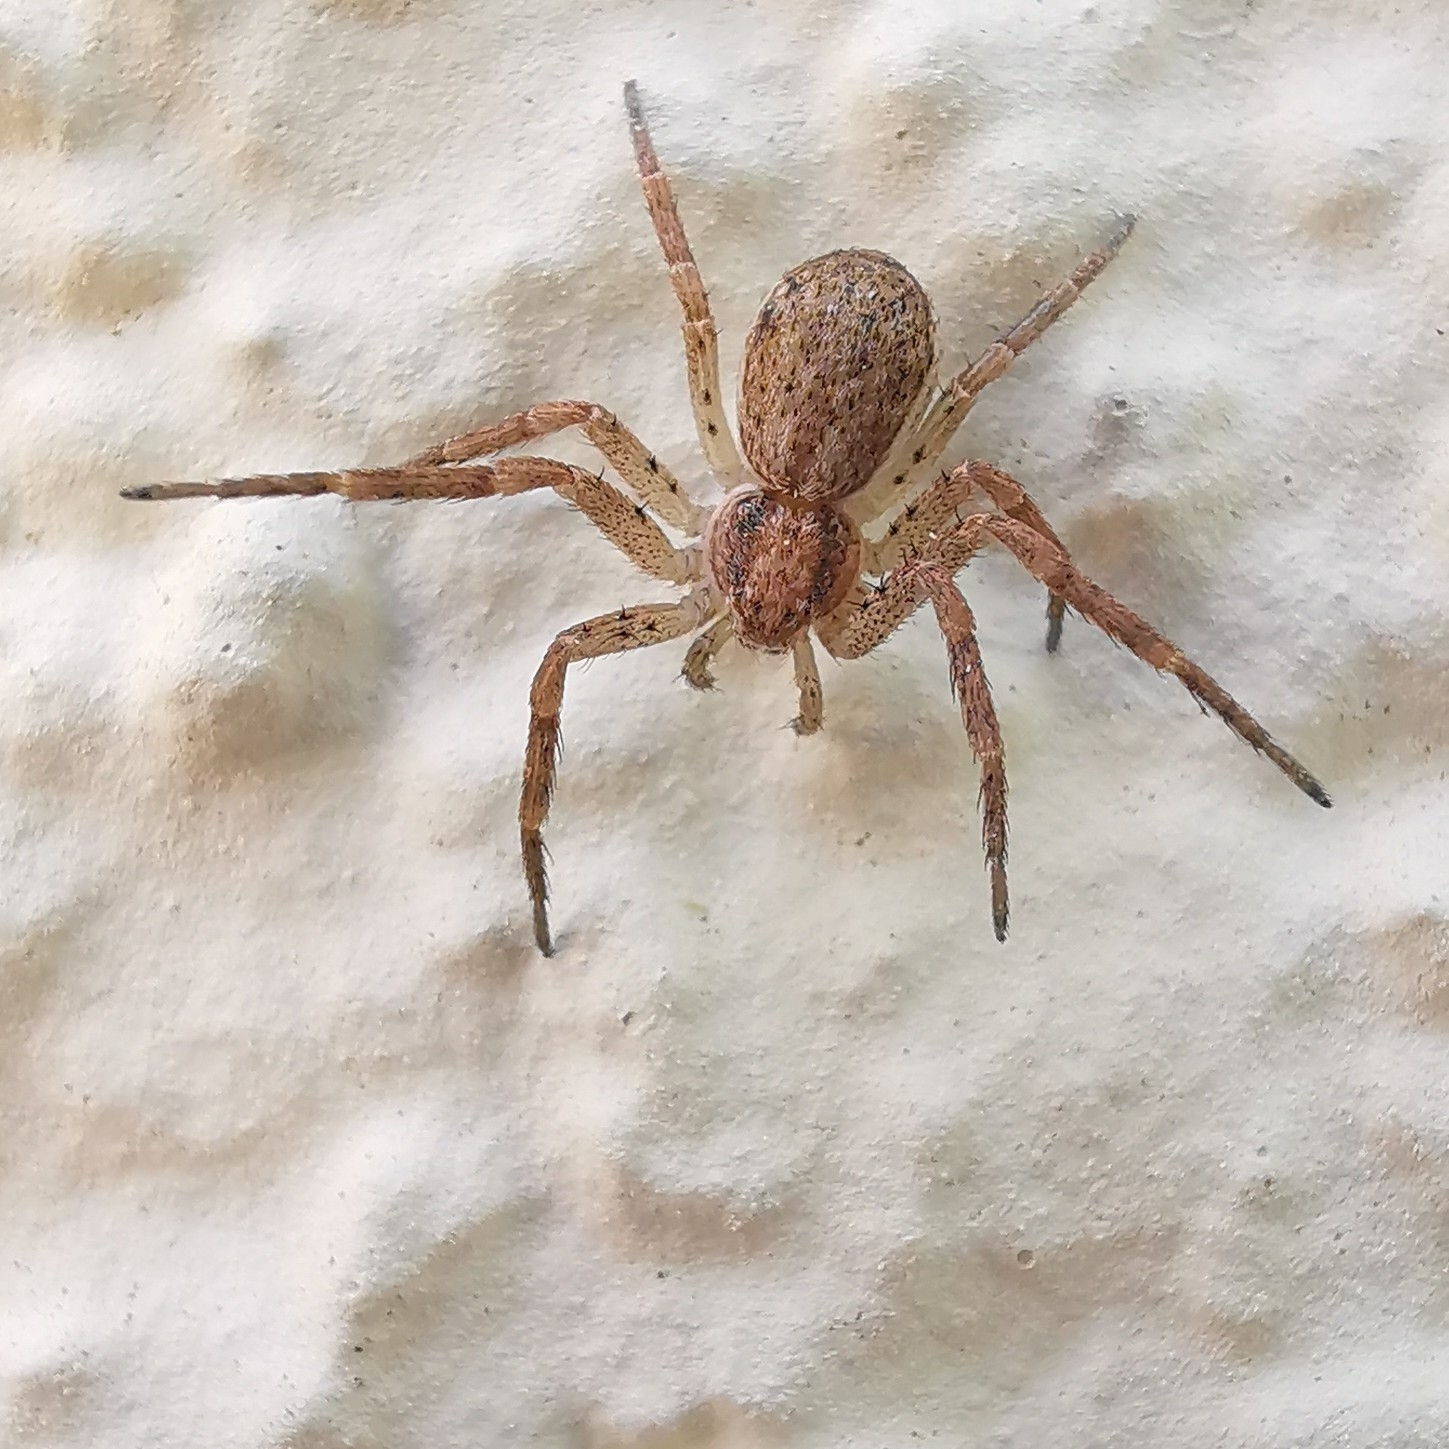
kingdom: Animalia
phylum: Arthropoda
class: Arachnida
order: Araneae
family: Philodromidae
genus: Philodromus
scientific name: Philodromus dispar
